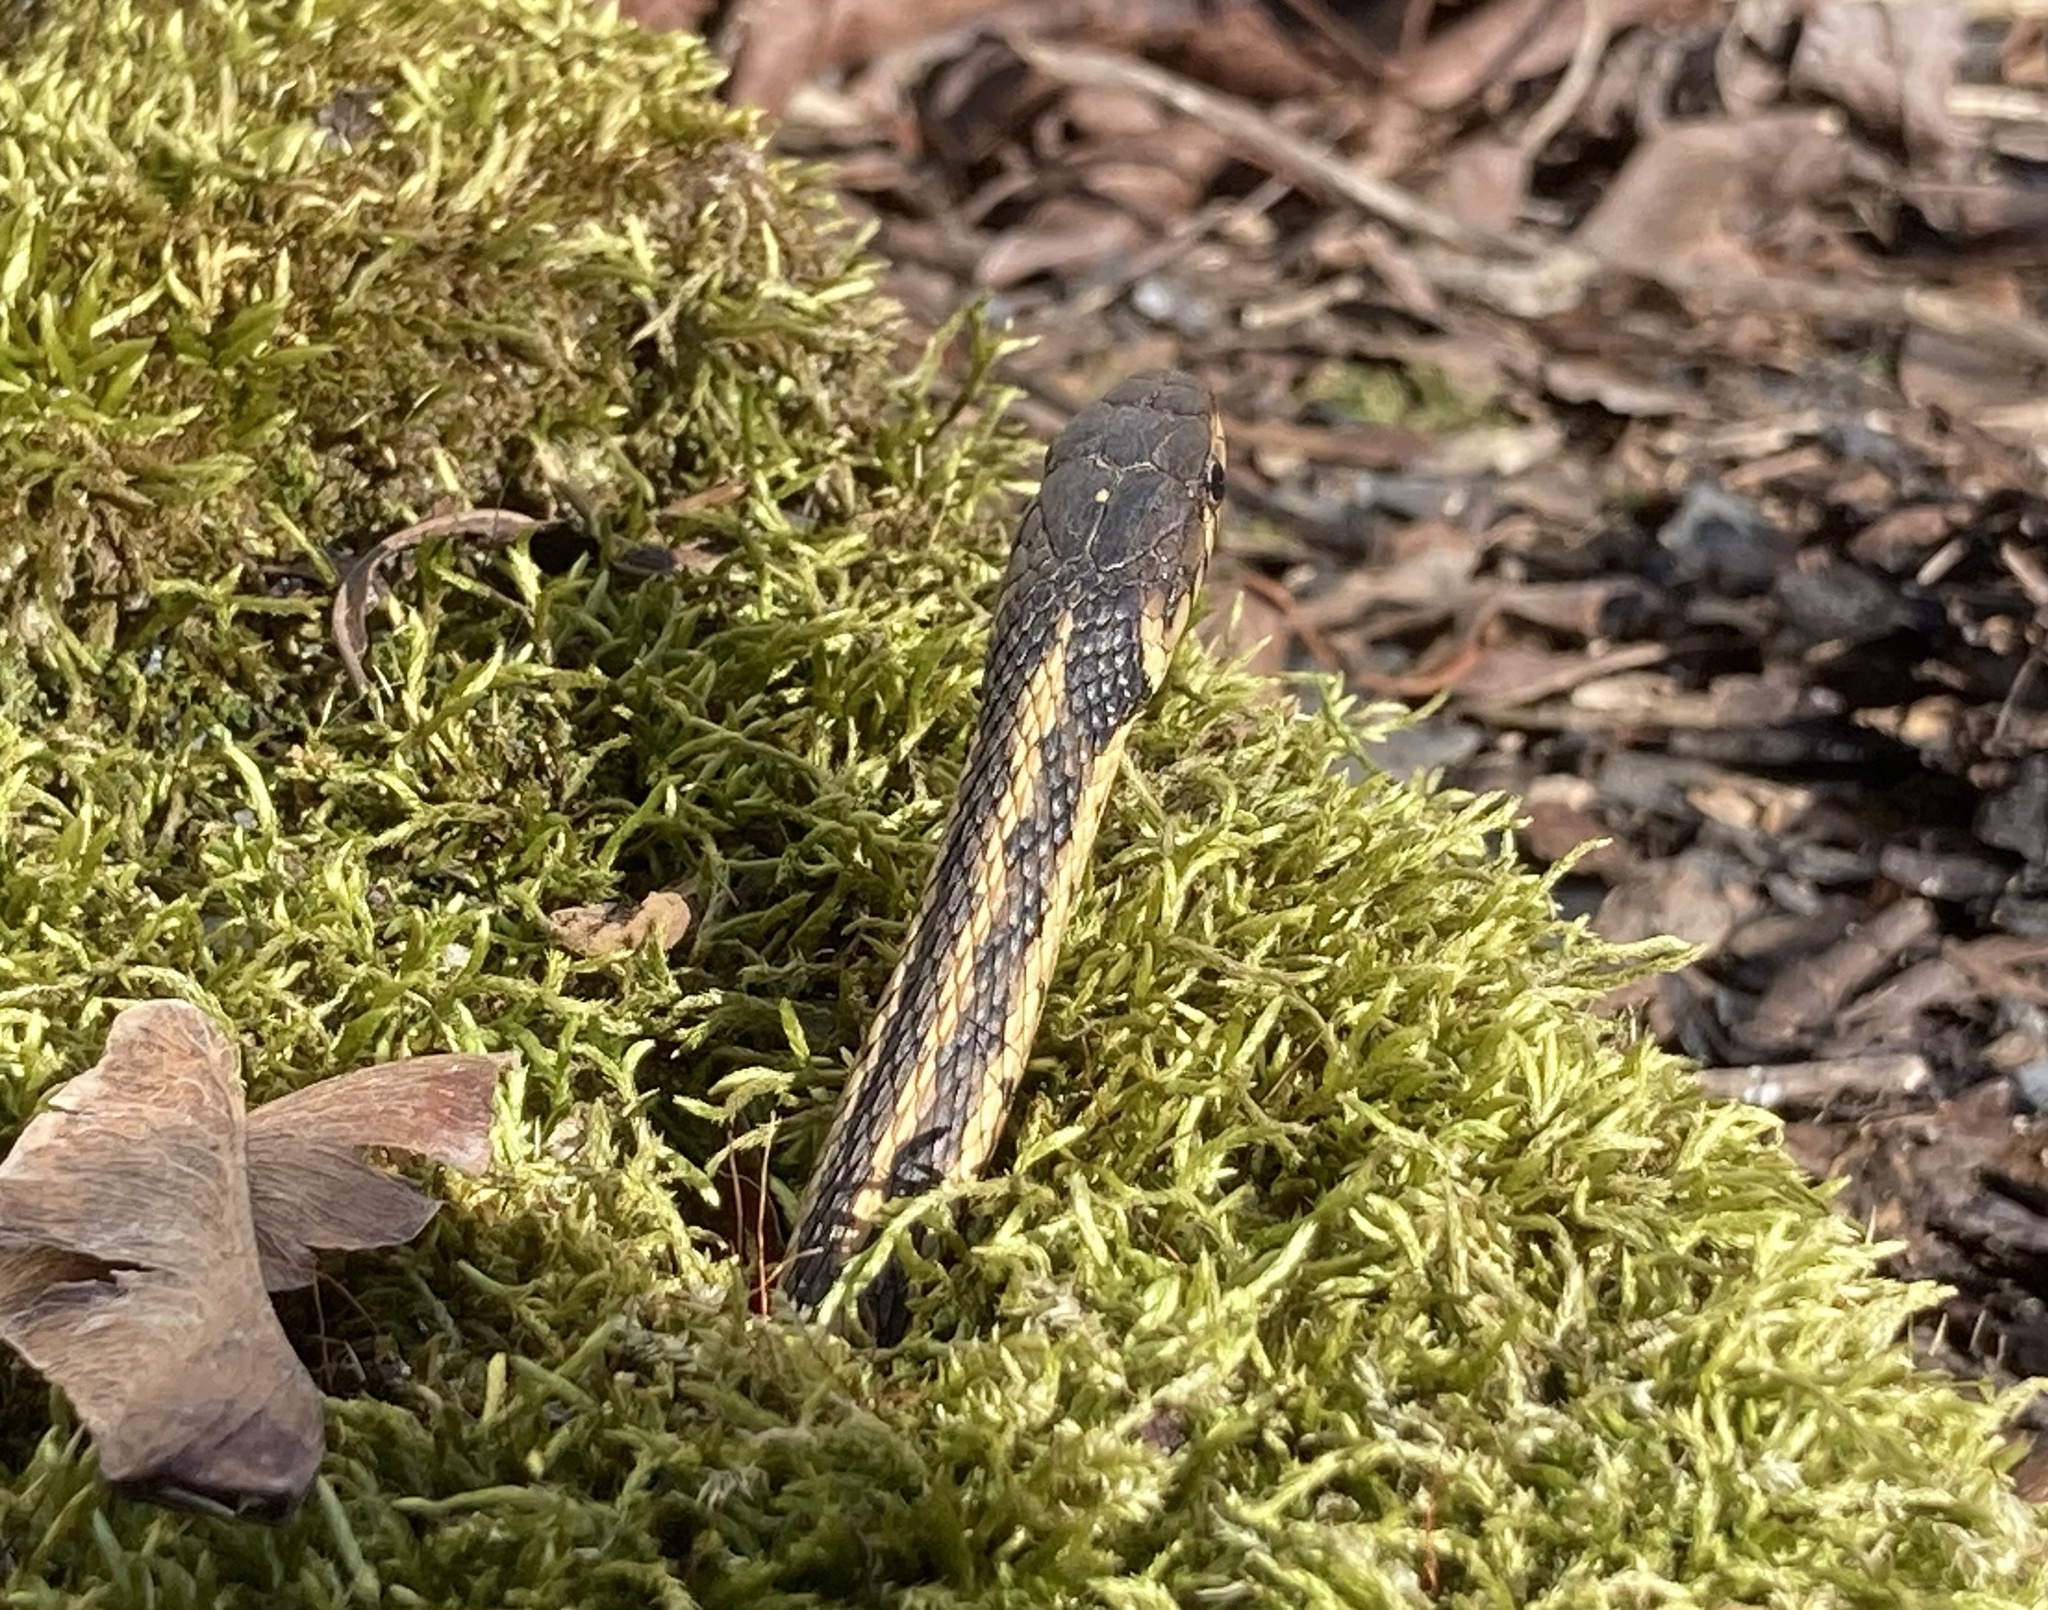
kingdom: Animalia
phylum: Chordata
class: Squamata
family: Colubridae
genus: Thamnophis
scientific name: Thamnophis sirtalis
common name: Common garter snake
